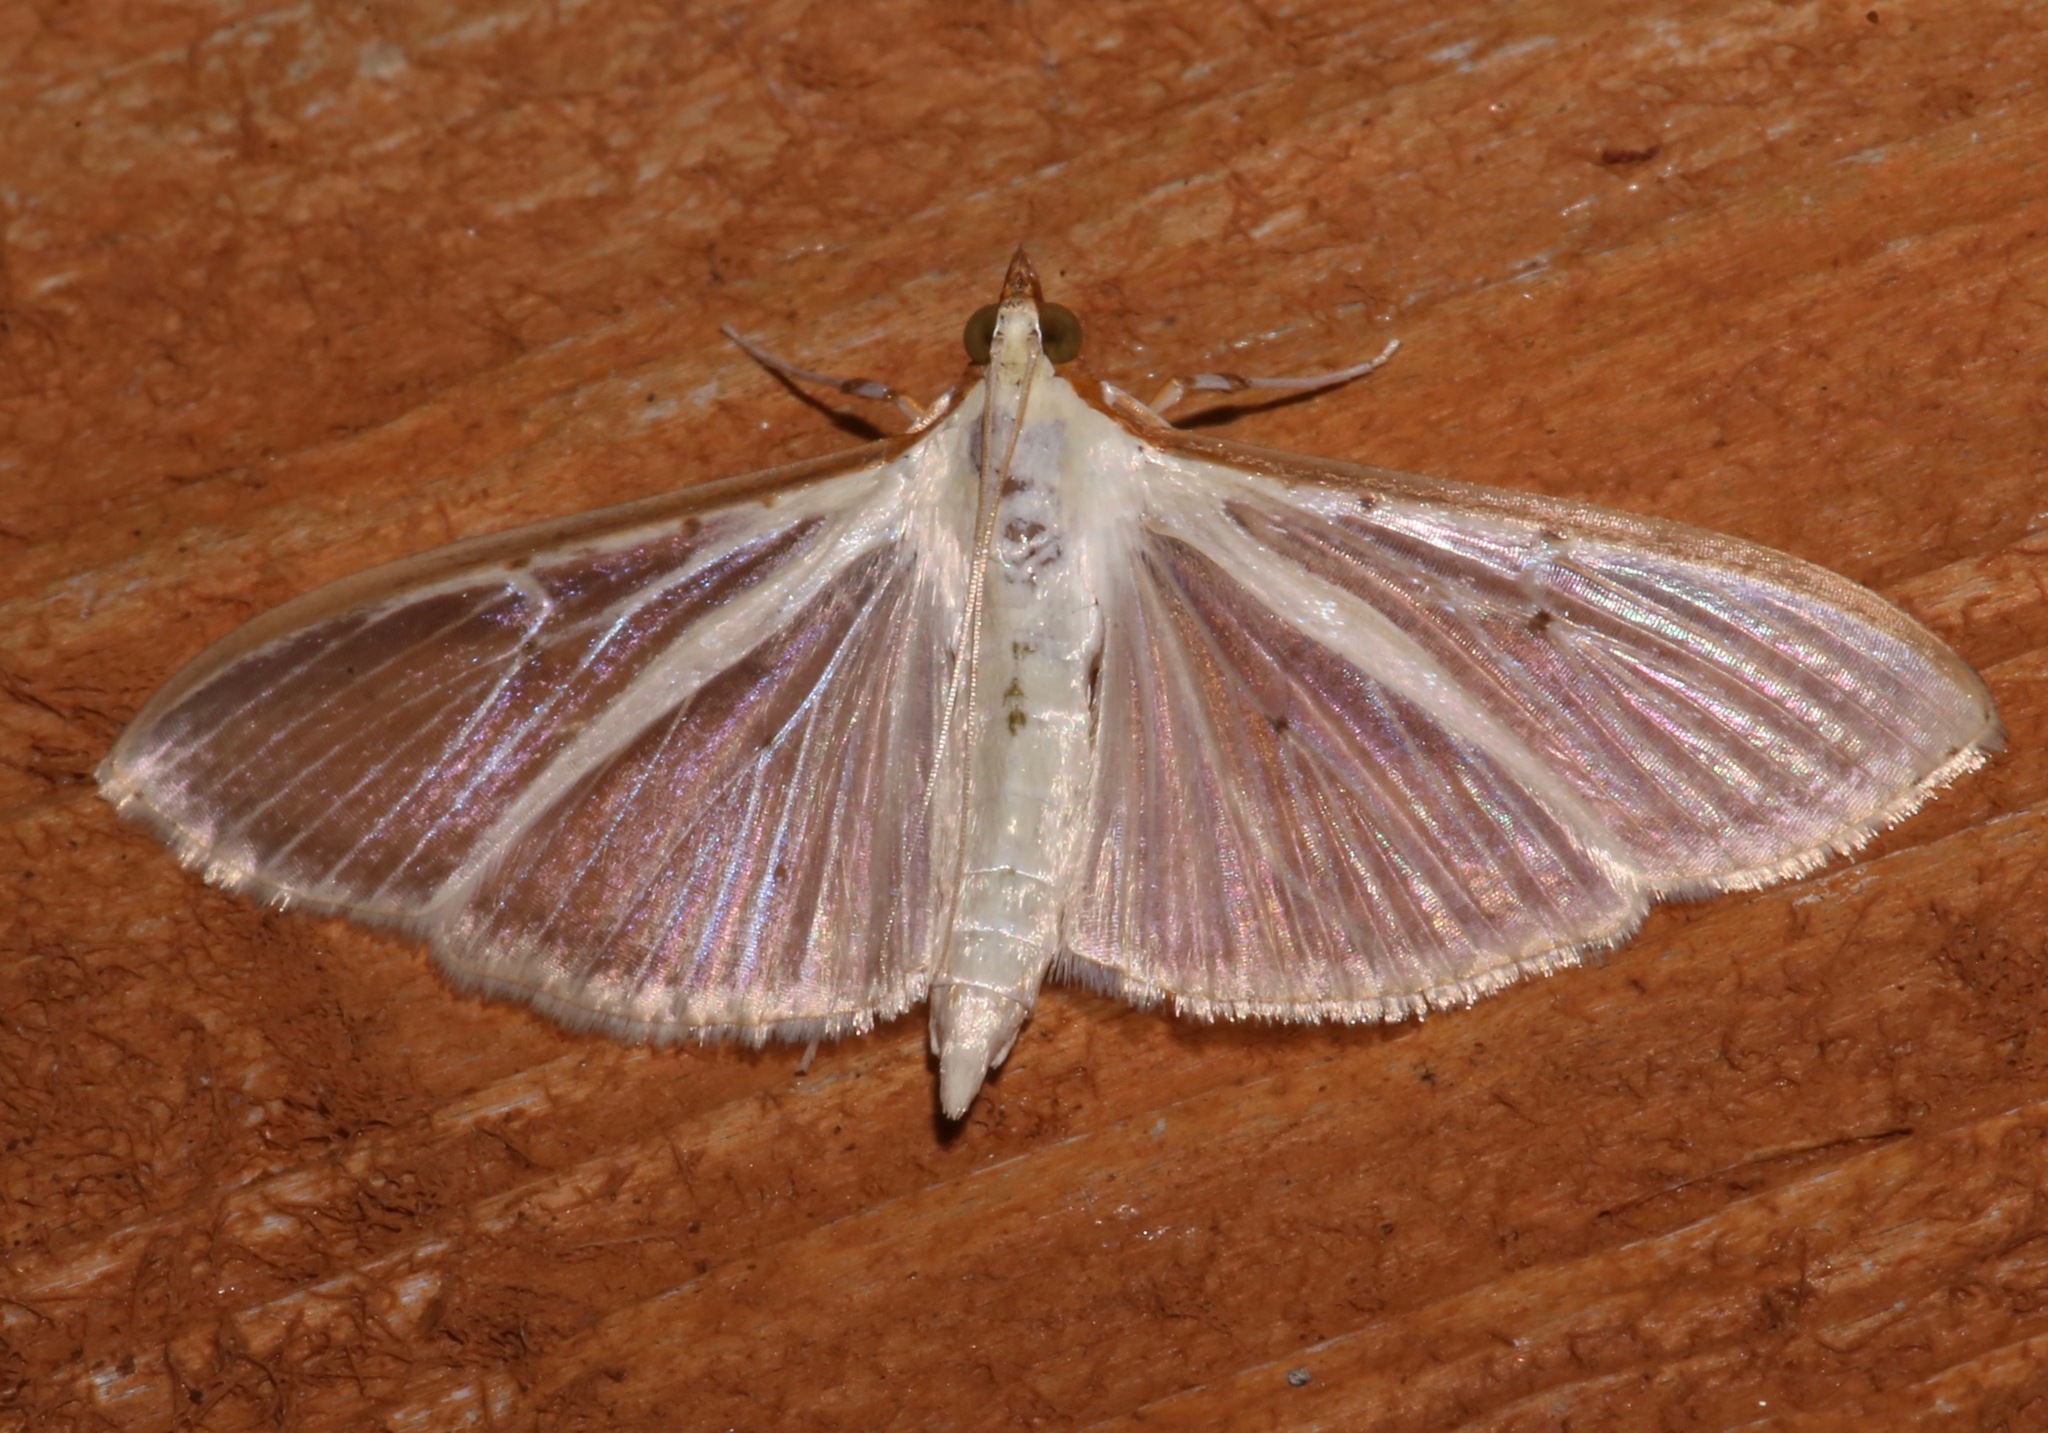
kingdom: Animalia
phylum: Arthropoda
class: Insecta
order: Lepidoptera
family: Crambidae
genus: Palpita
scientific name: Palpita quadristigmalis
